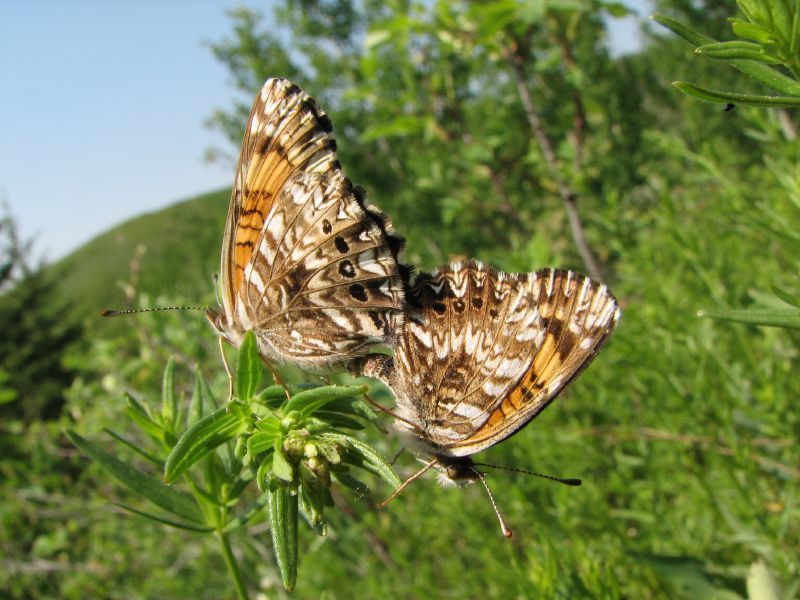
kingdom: Animalia
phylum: Arthropoda
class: Insecta
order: Lepidoptera
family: Nymphalidae
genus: Chlosyne
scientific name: Chlosyne gorgone
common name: Gorgone checkerspot
